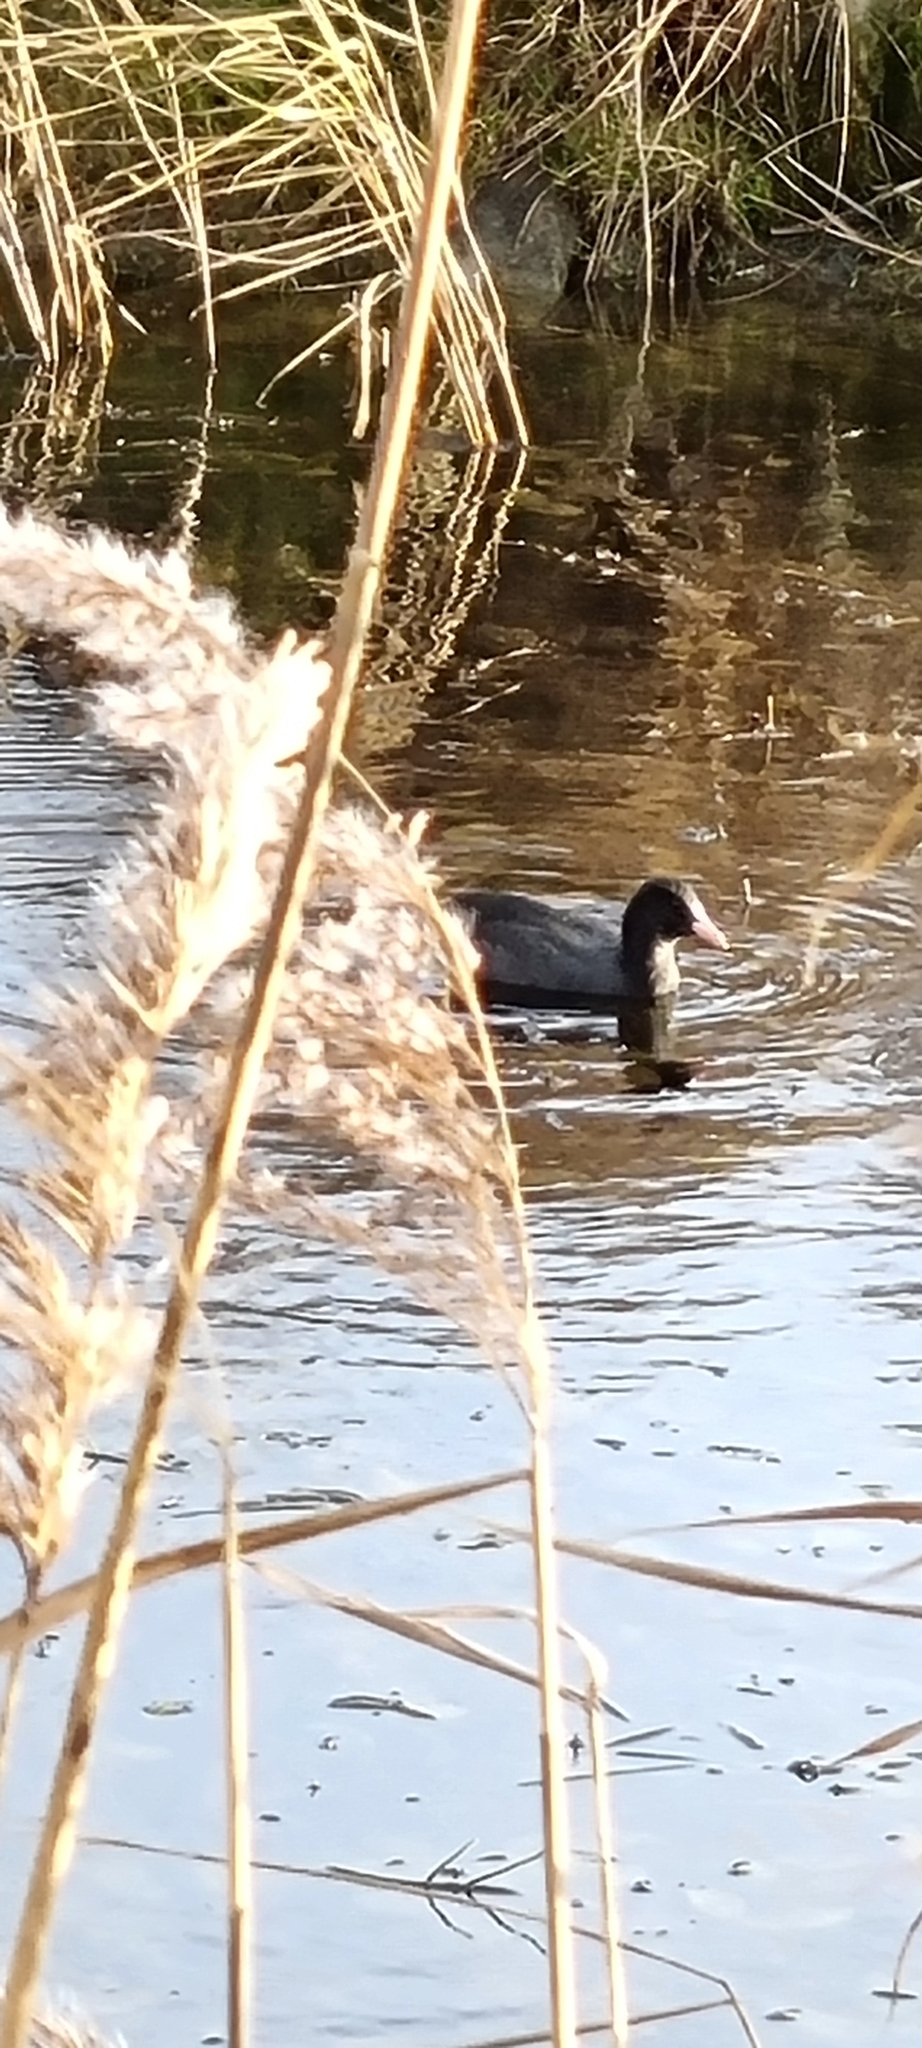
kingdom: Animalia
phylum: Chordata
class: Aves
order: Gruiformes
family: Rallidae
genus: Fulica
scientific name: Fulica atra
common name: Eurasian coot
